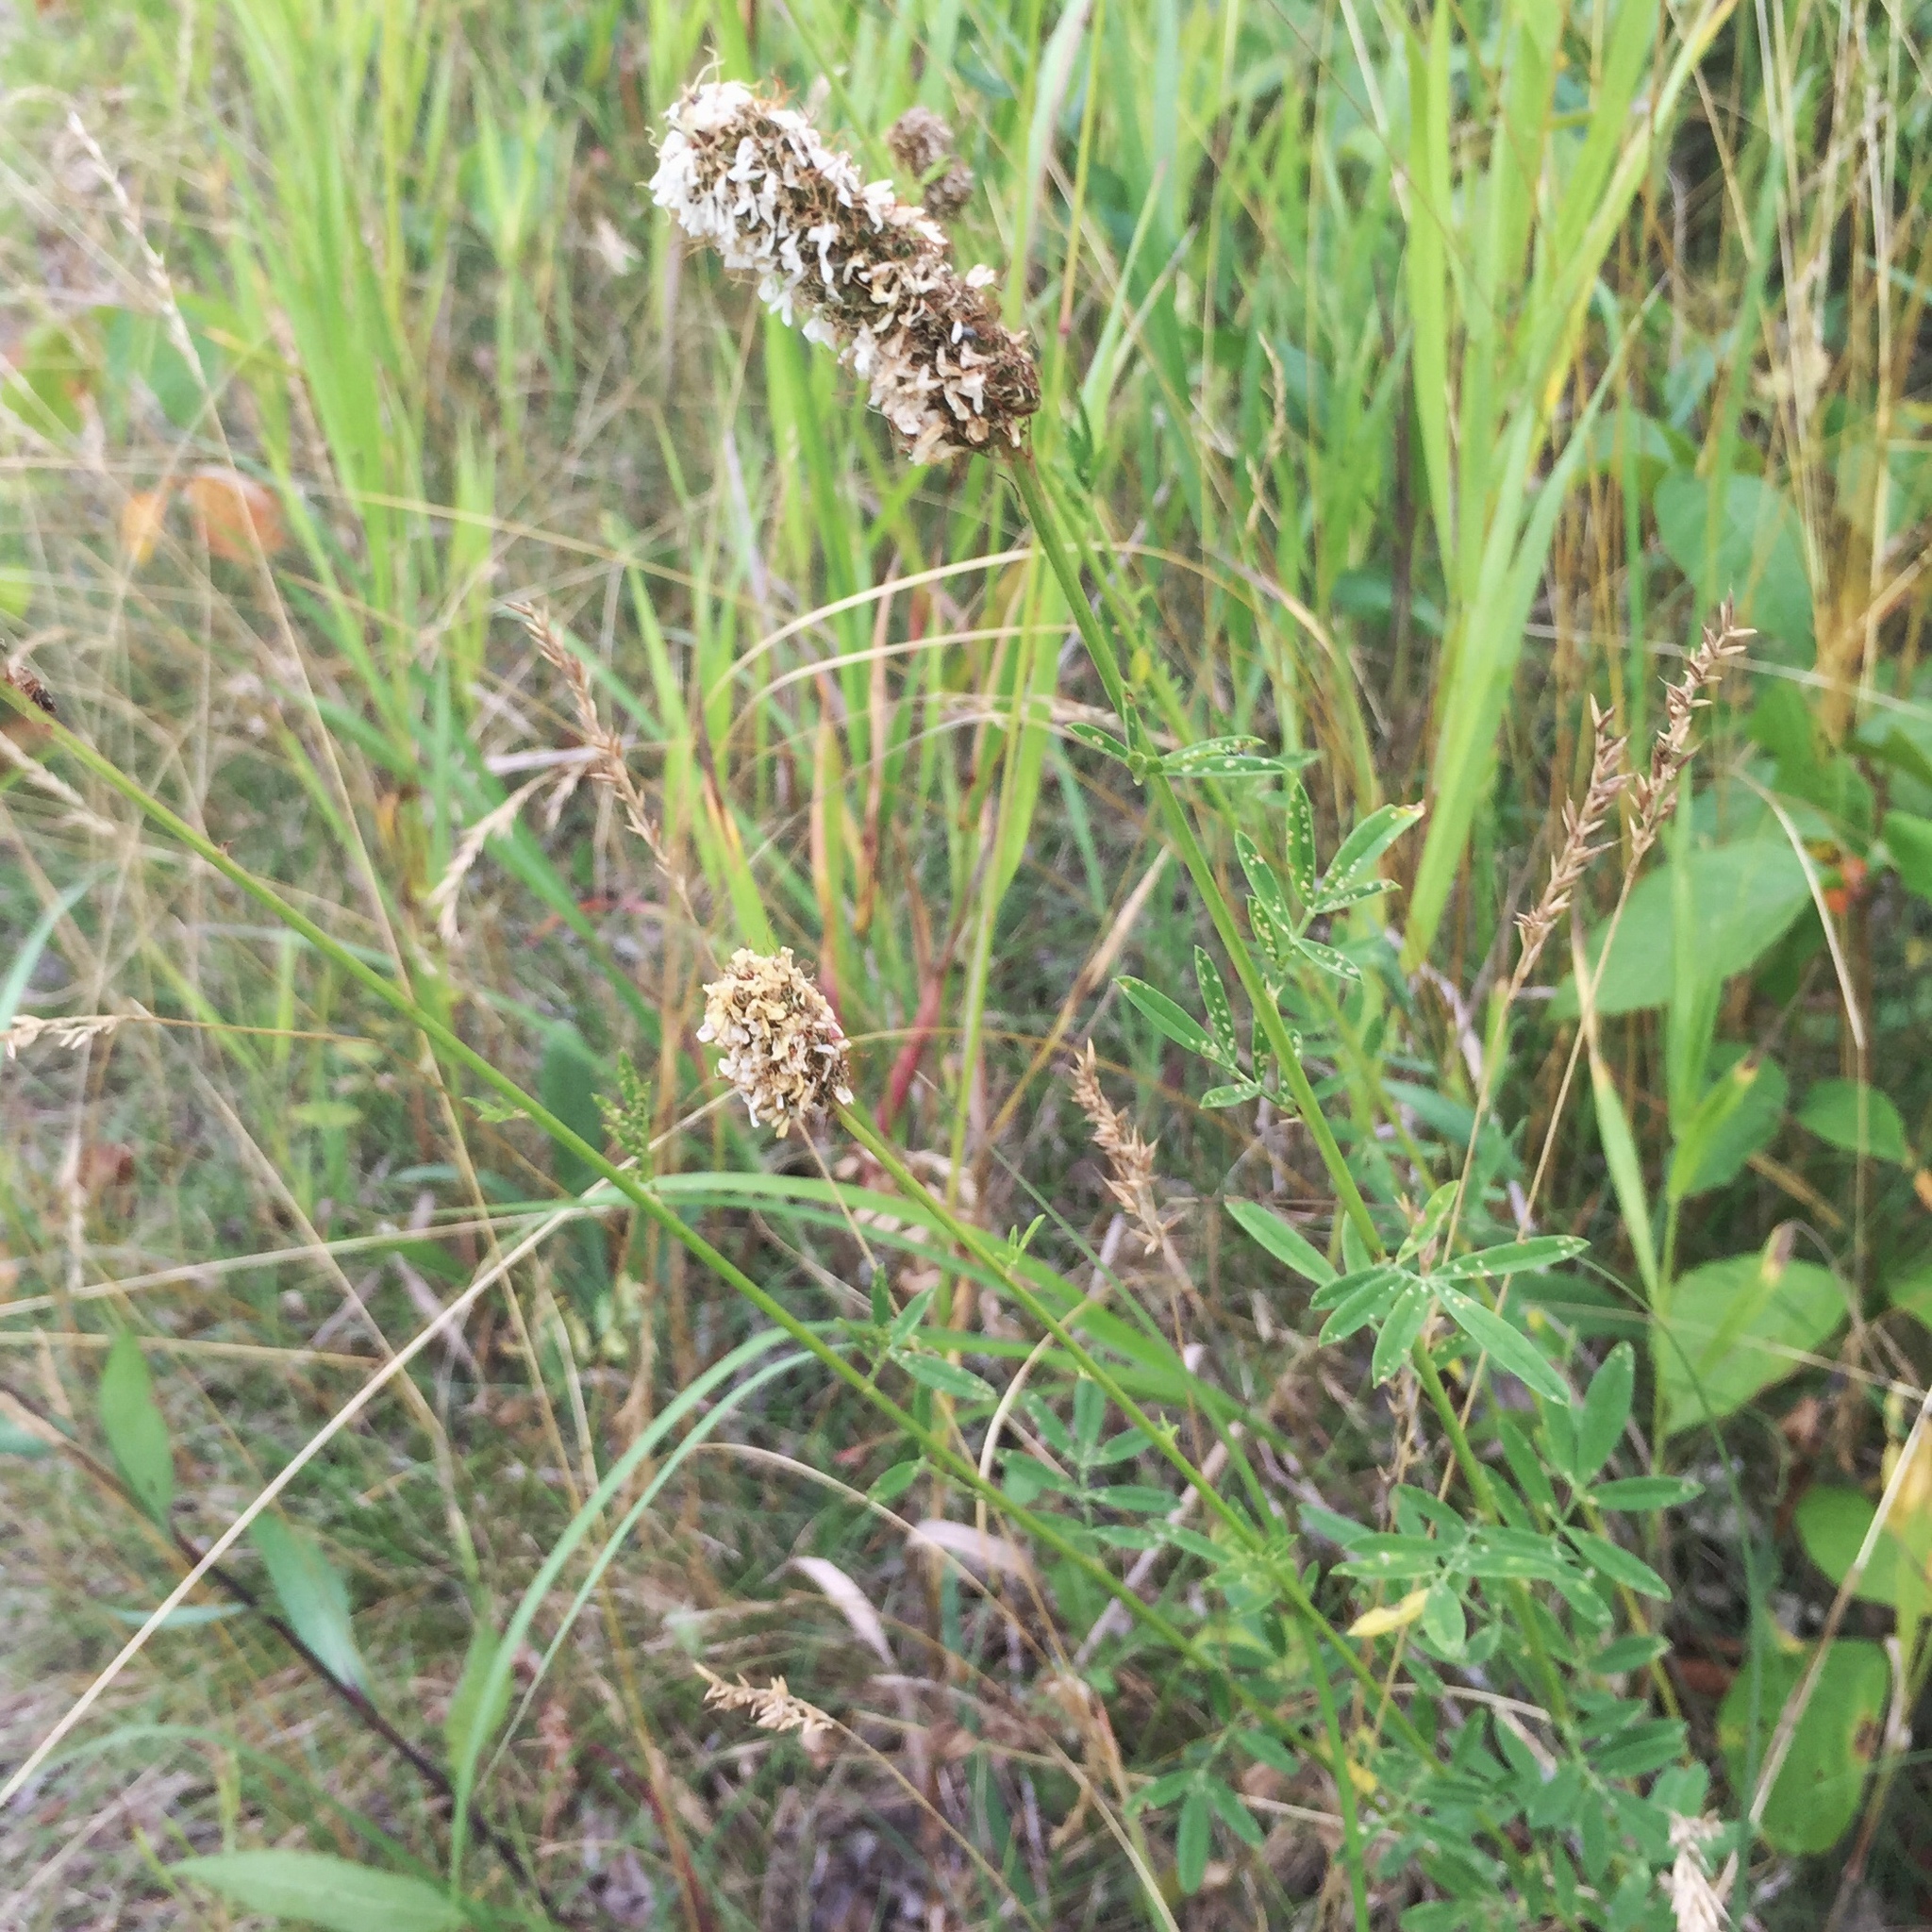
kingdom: Plantae
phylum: Tracheophyta
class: Magnoliopsida
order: Fabales
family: Fabaceae
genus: Dalea
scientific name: Dalea candida
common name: White prairie-clover
